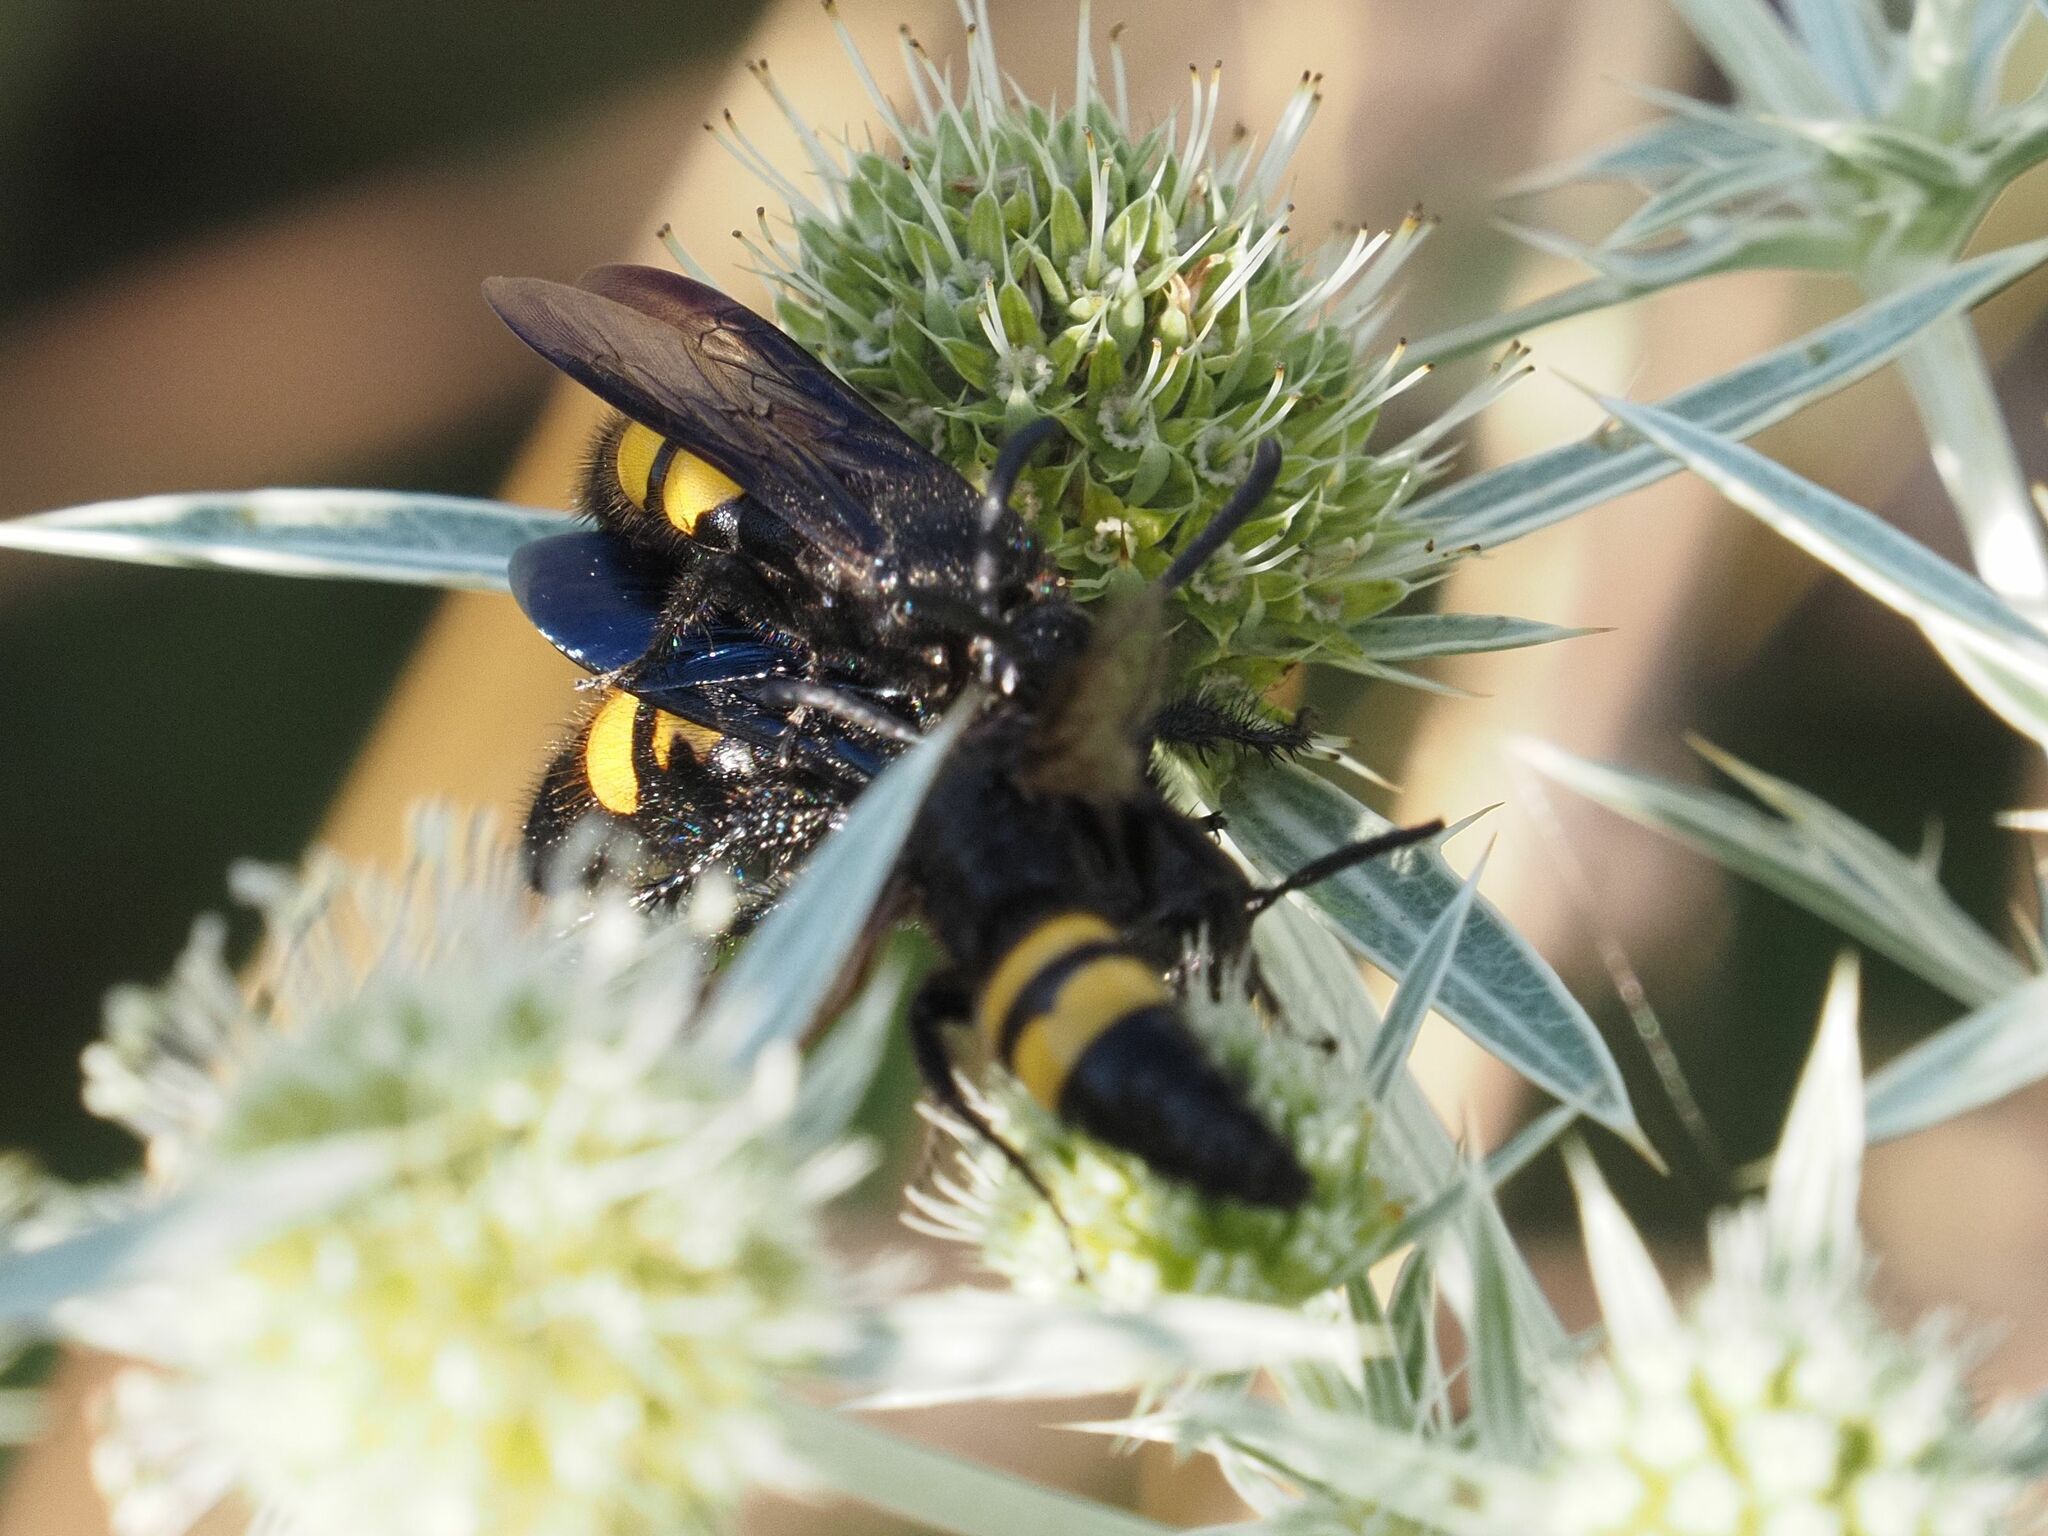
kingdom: Animalia
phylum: Arthropoda
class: Insecta
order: Hymenoptera
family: Scoliidae
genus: Scolia
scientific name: Scolia hirta
